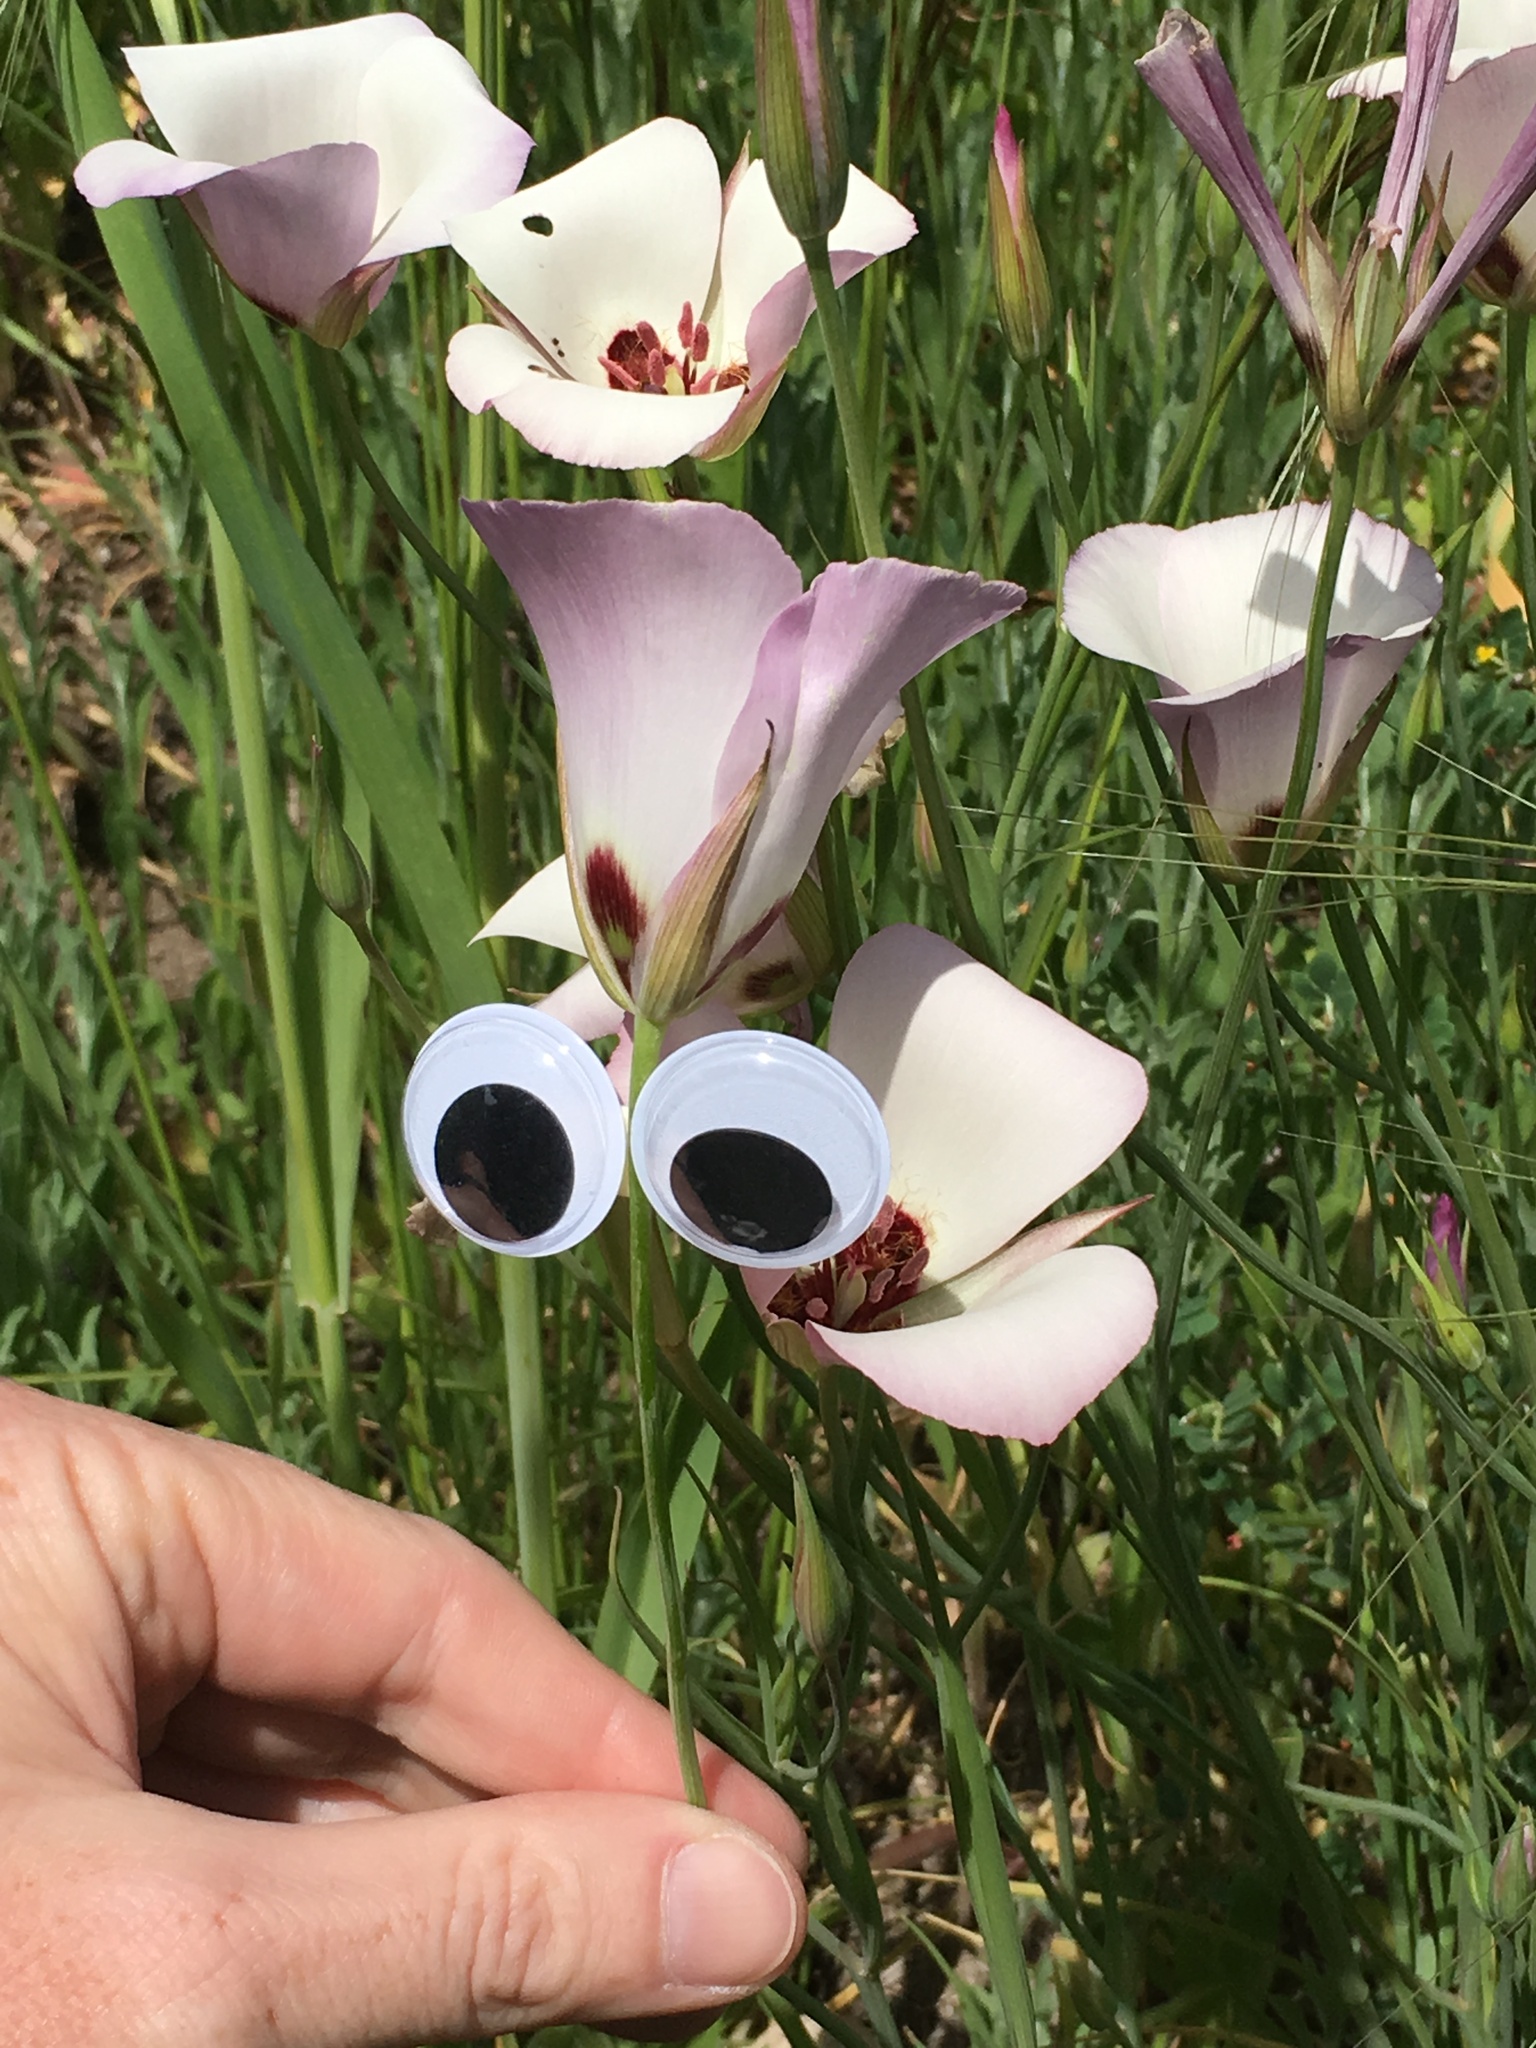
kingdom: Plantae
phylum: Tracheophyta
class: Liliopsida
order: Liliales
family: Liliaceae
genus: Calochortus
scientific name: Calochortus catalinae
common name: Catalina mariposa-lily
